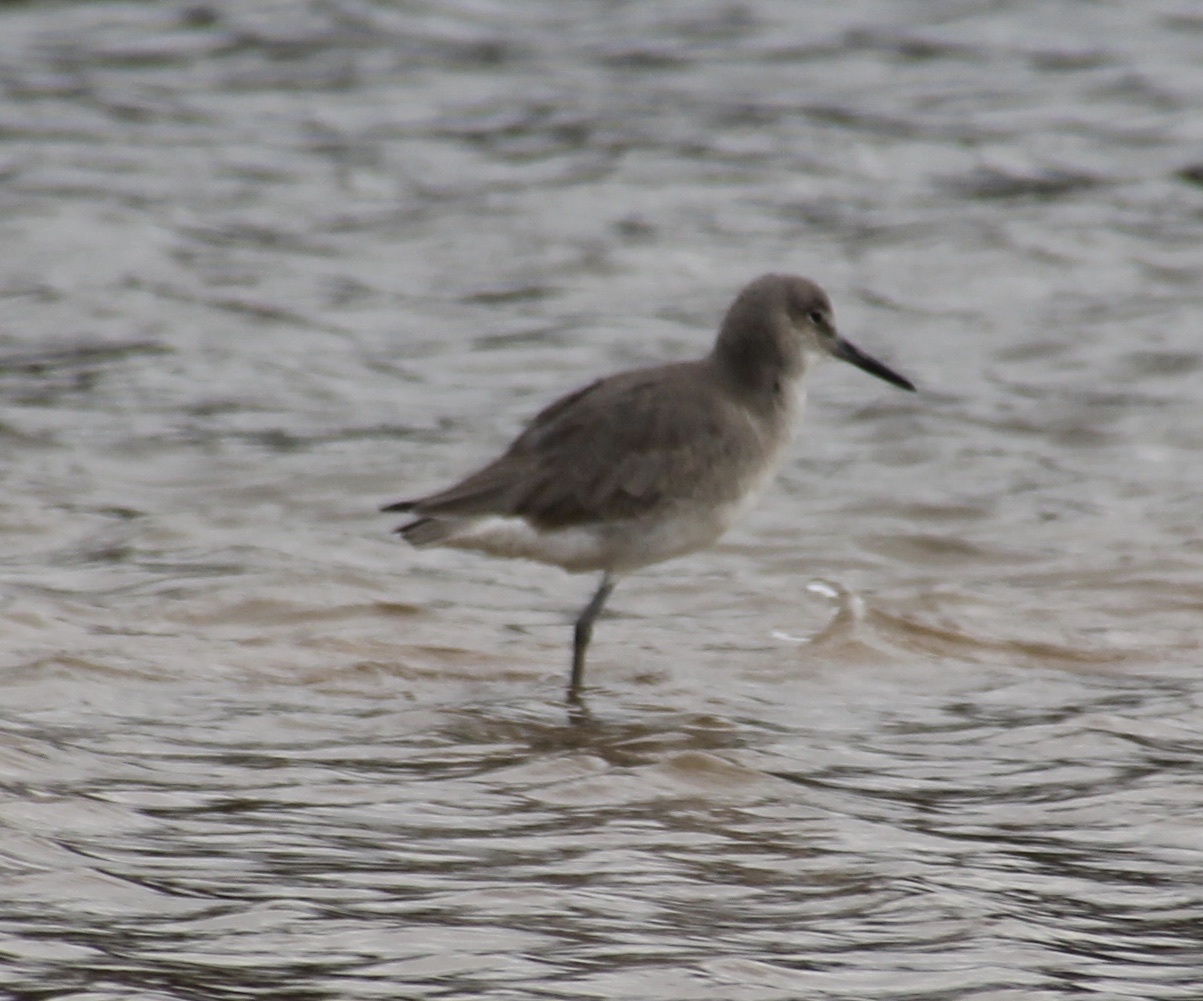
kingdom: Animalia
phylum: Chordata
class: Aves
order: Charadriiformes
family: Scolopacidae
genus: Tringa
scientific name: Tringa semipalmata
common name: Willet
